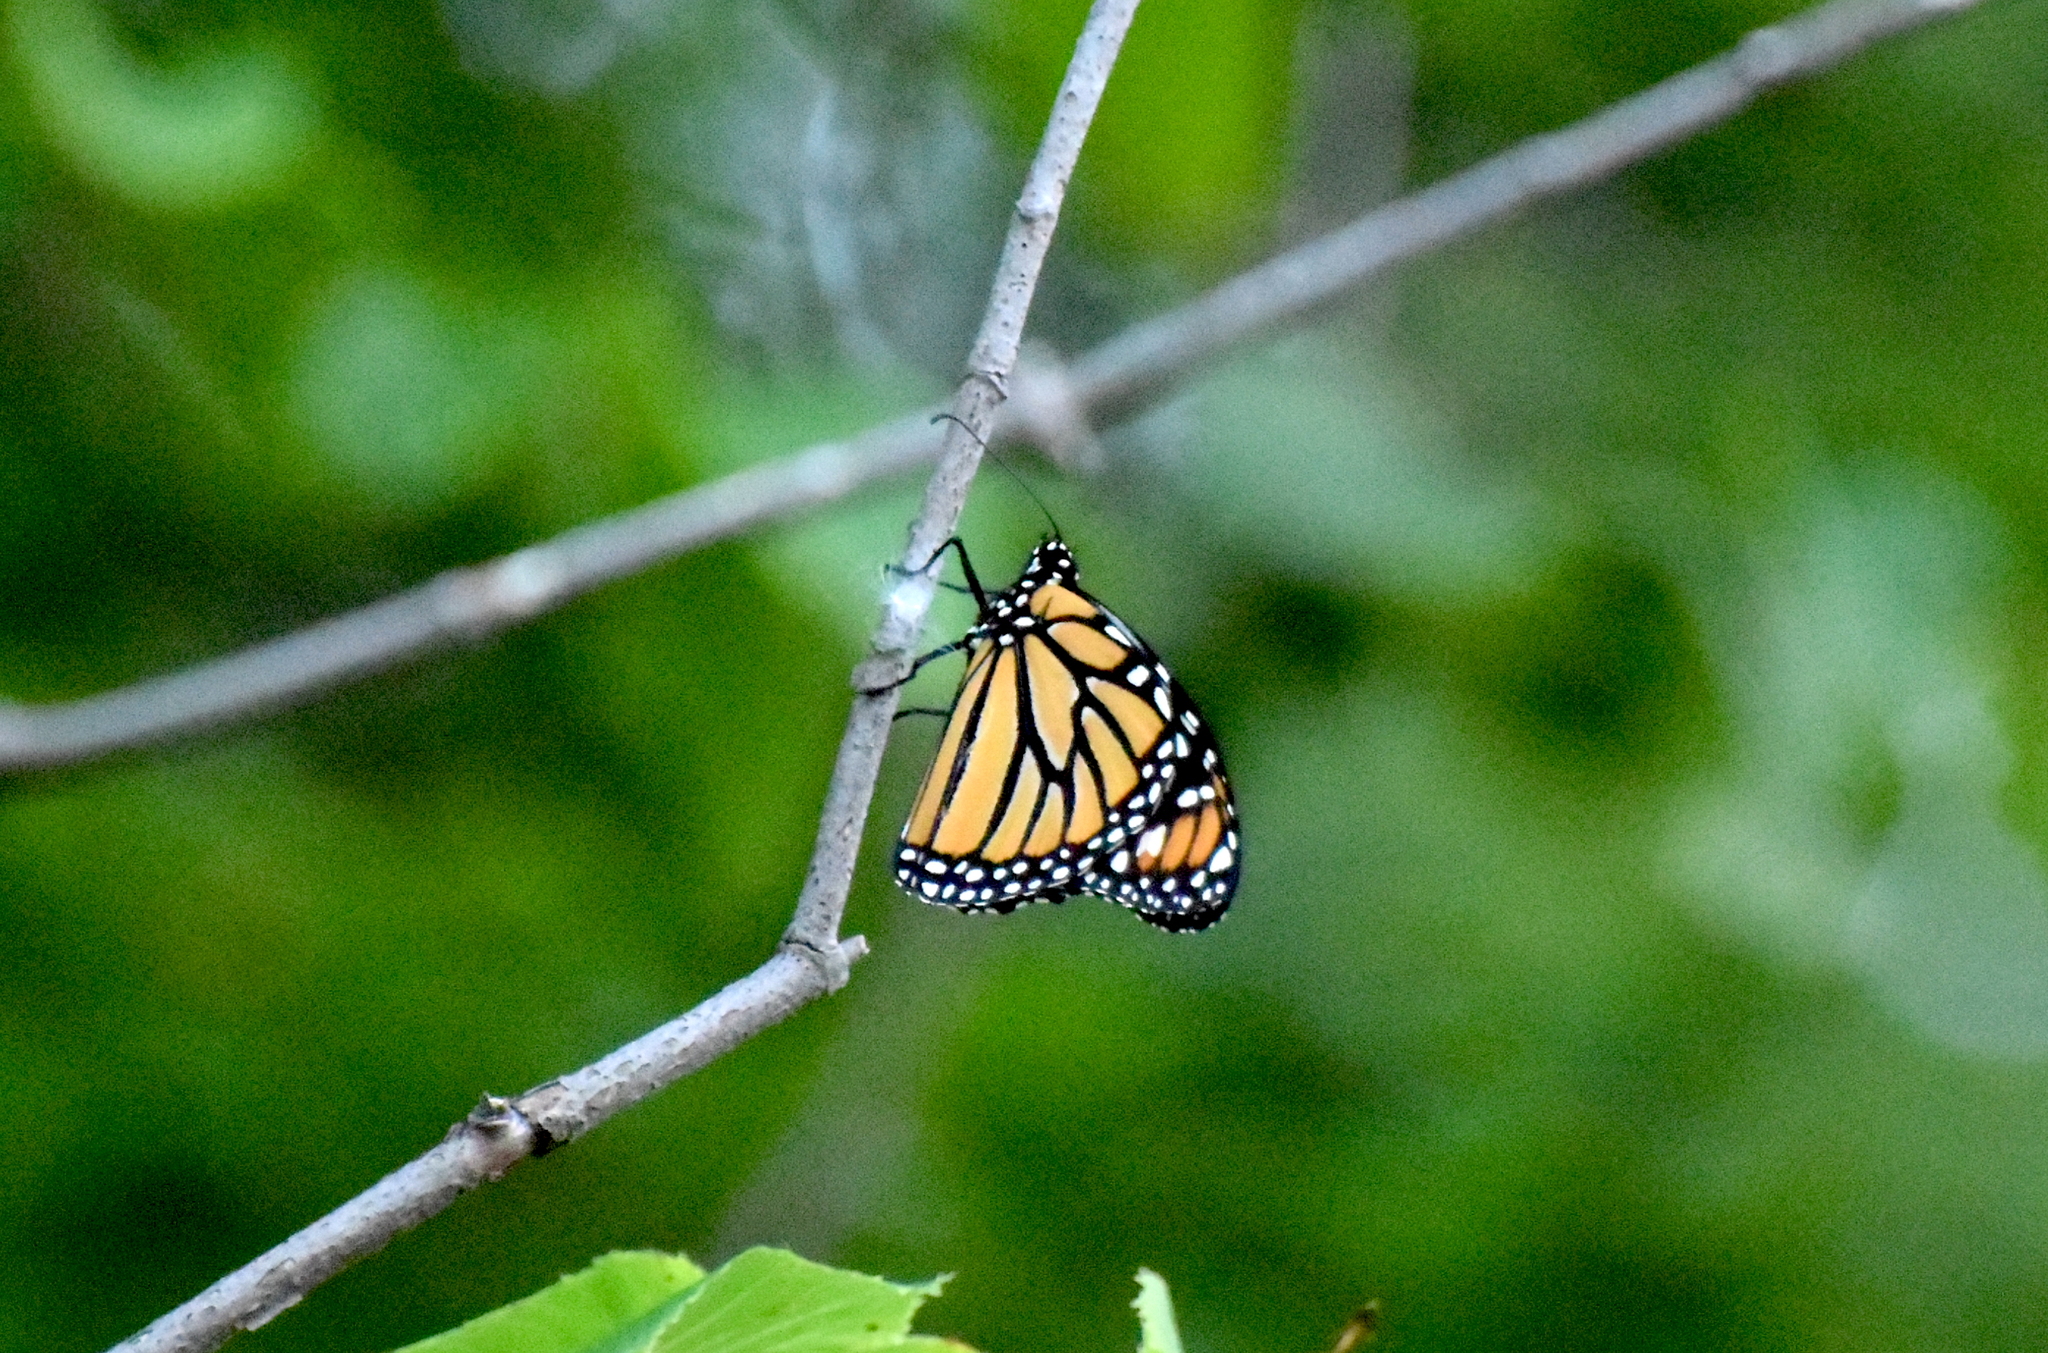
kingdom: Animalia
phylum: Arthropoda
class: Insecta
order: Lepidoptera
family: Nymphalidae
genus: Danaus
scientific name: Danaus plexippus
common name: Monarch
